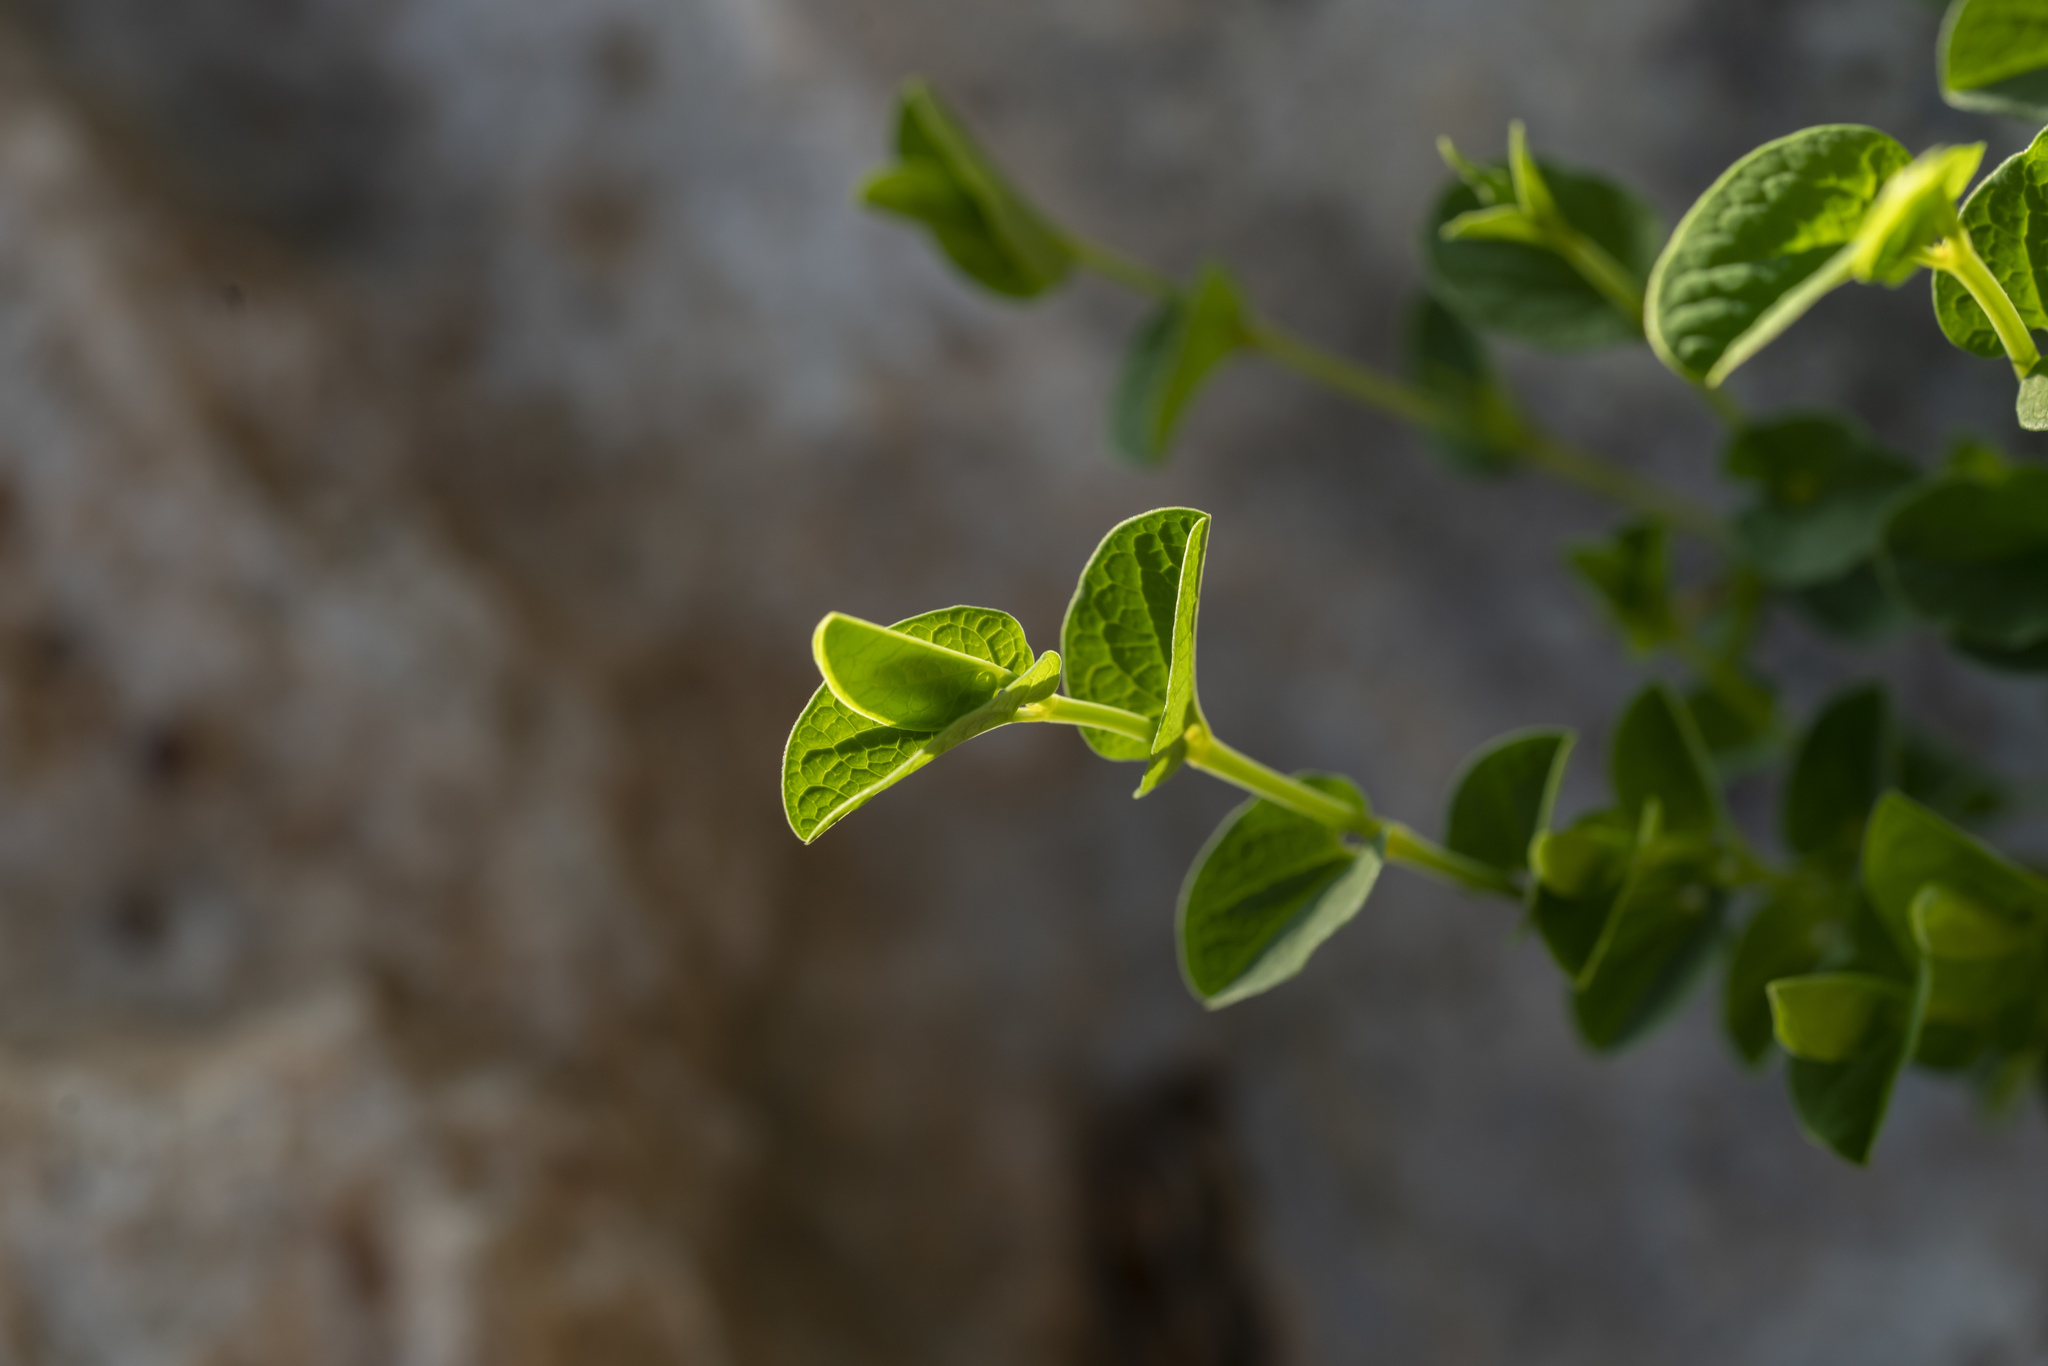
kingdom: Plantae
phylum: Tracheophyta
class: Magnoliopsida
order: Piperales
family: Aristolochiaceae
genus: Aristolochia
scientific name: Aristolochia parvifolia
